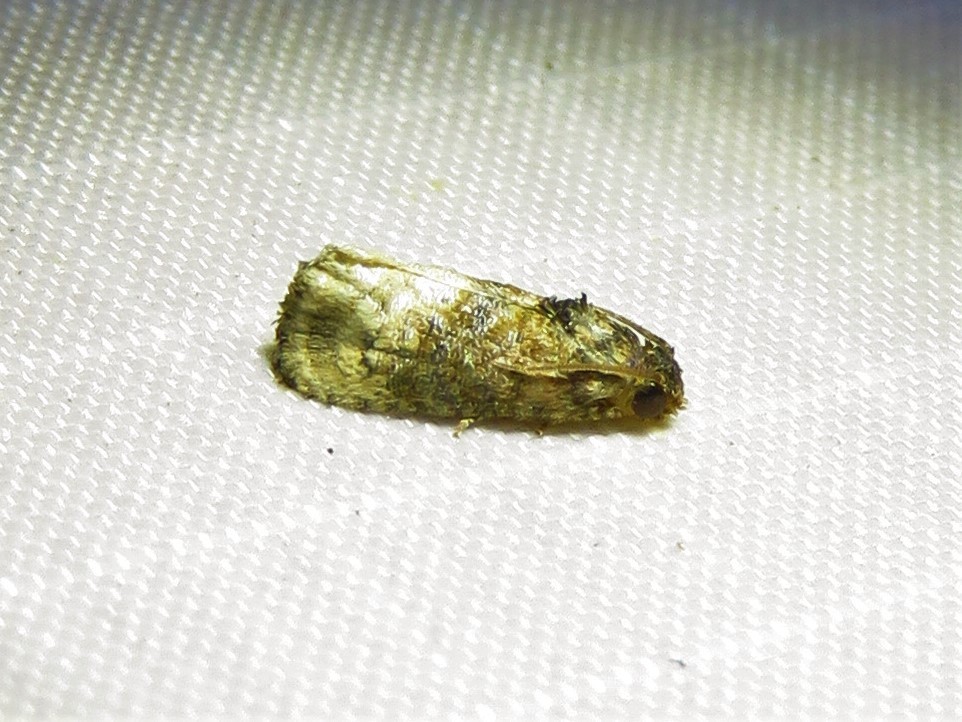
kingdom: Animalia
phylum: Arthropoda
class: Insecta
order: Lepidoptera
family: Tortricidae
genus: Ecdytolopha
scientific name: Ecdytolopha mana
